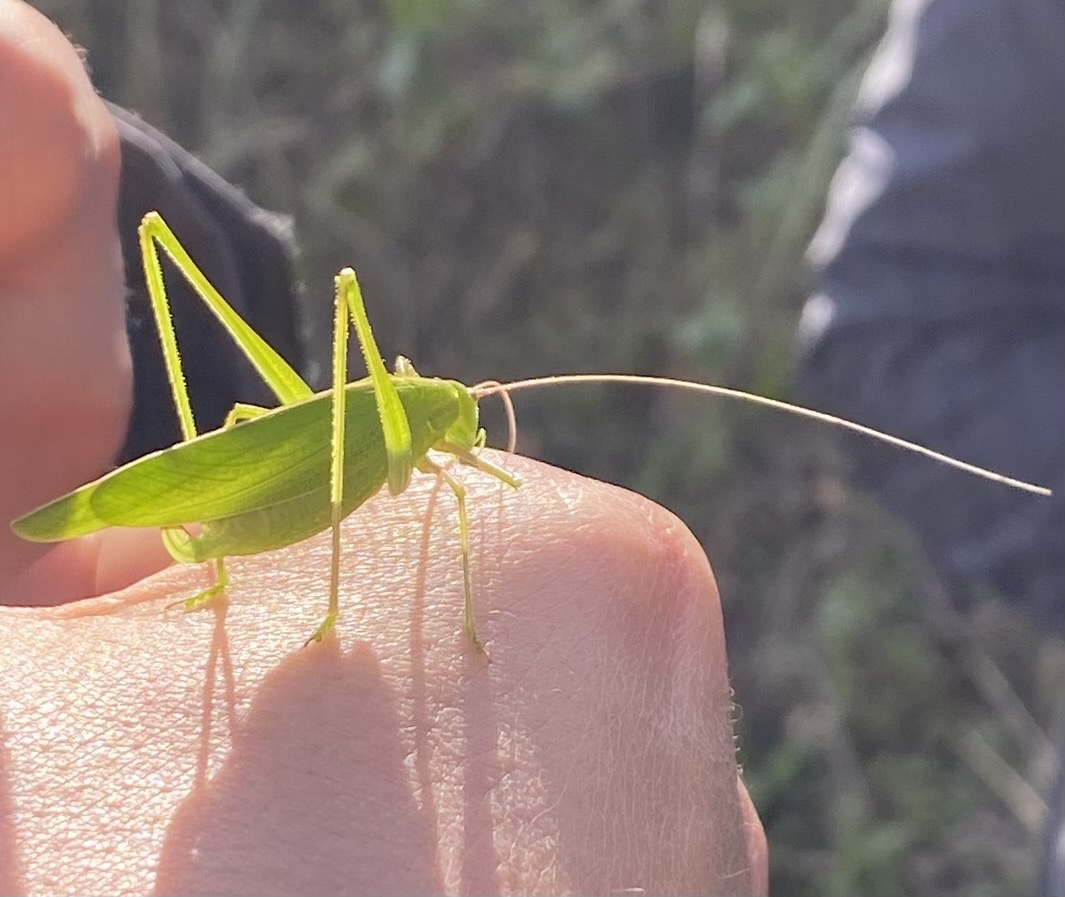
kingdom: Animalia
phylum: Arthropoda
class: Insecta
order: Orthoptera
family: Tettigoniidae
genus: Ducetia
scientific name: Ducetia japonica
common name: Pacific ducetia
